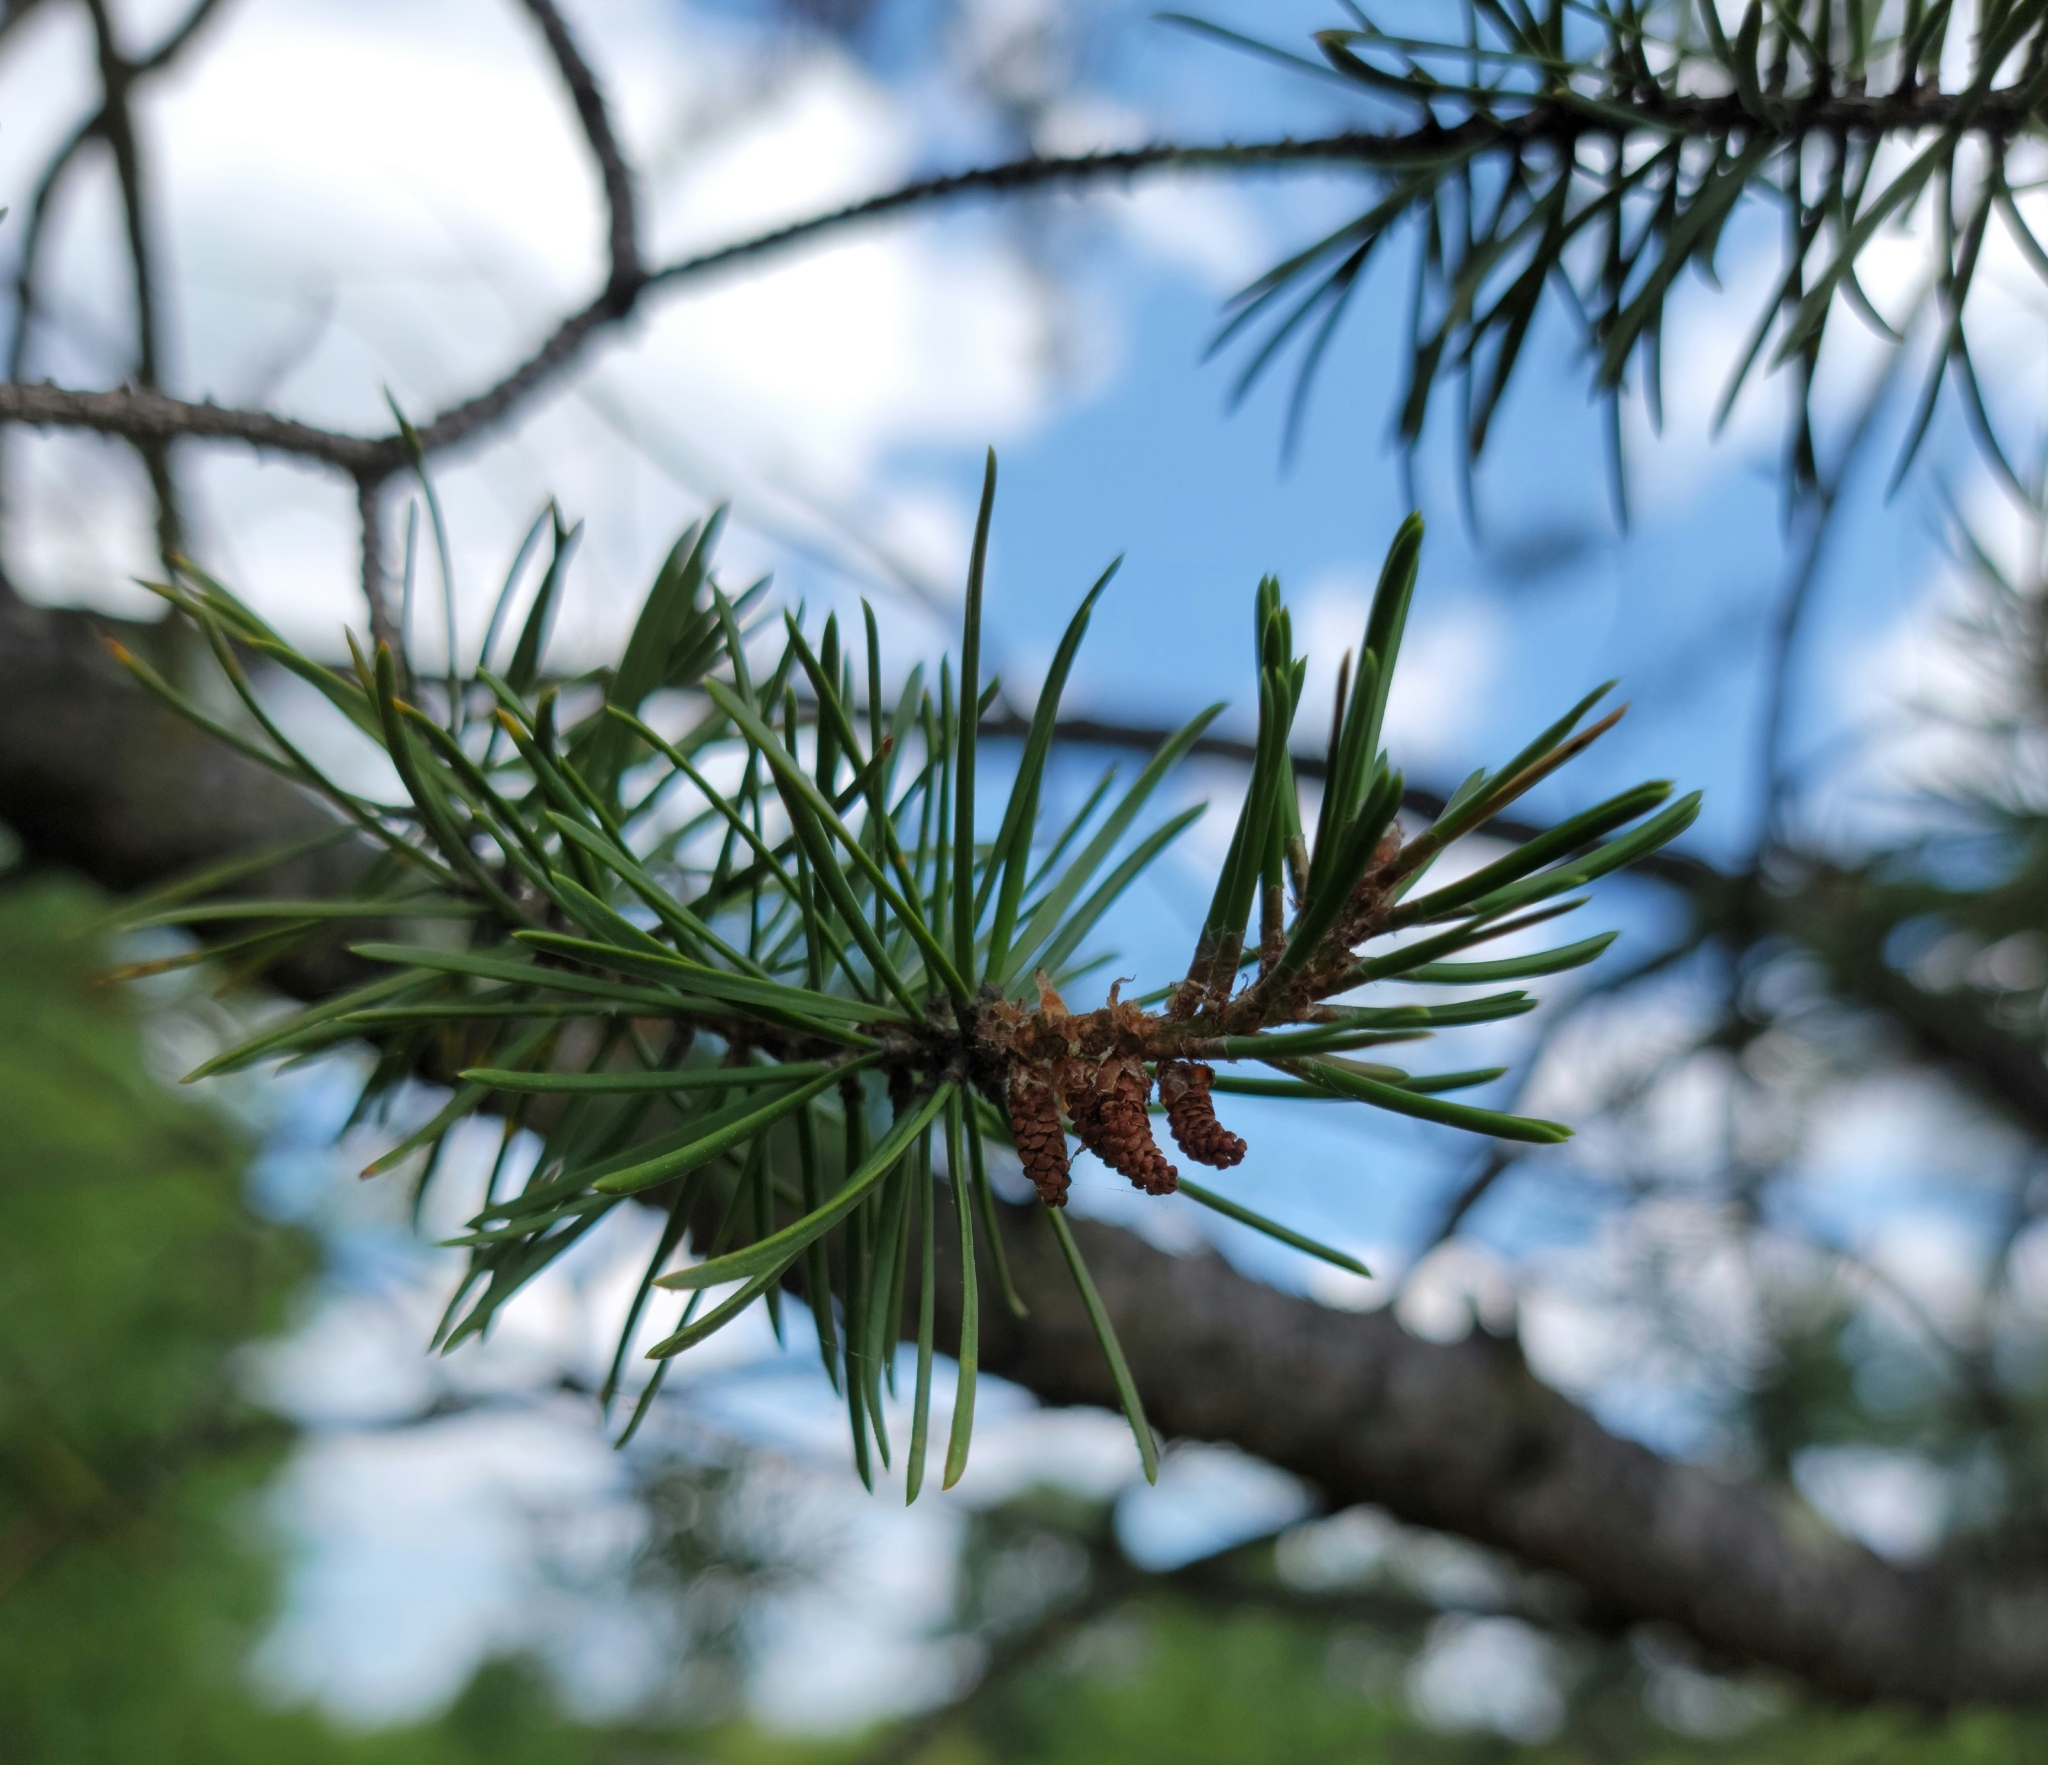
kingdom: Plantae
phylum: Tracheophyta
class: Pinopsida
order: Pinales
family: Pinaceae
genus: Pinus
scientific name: Pinus banksiana
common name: Jack pine
